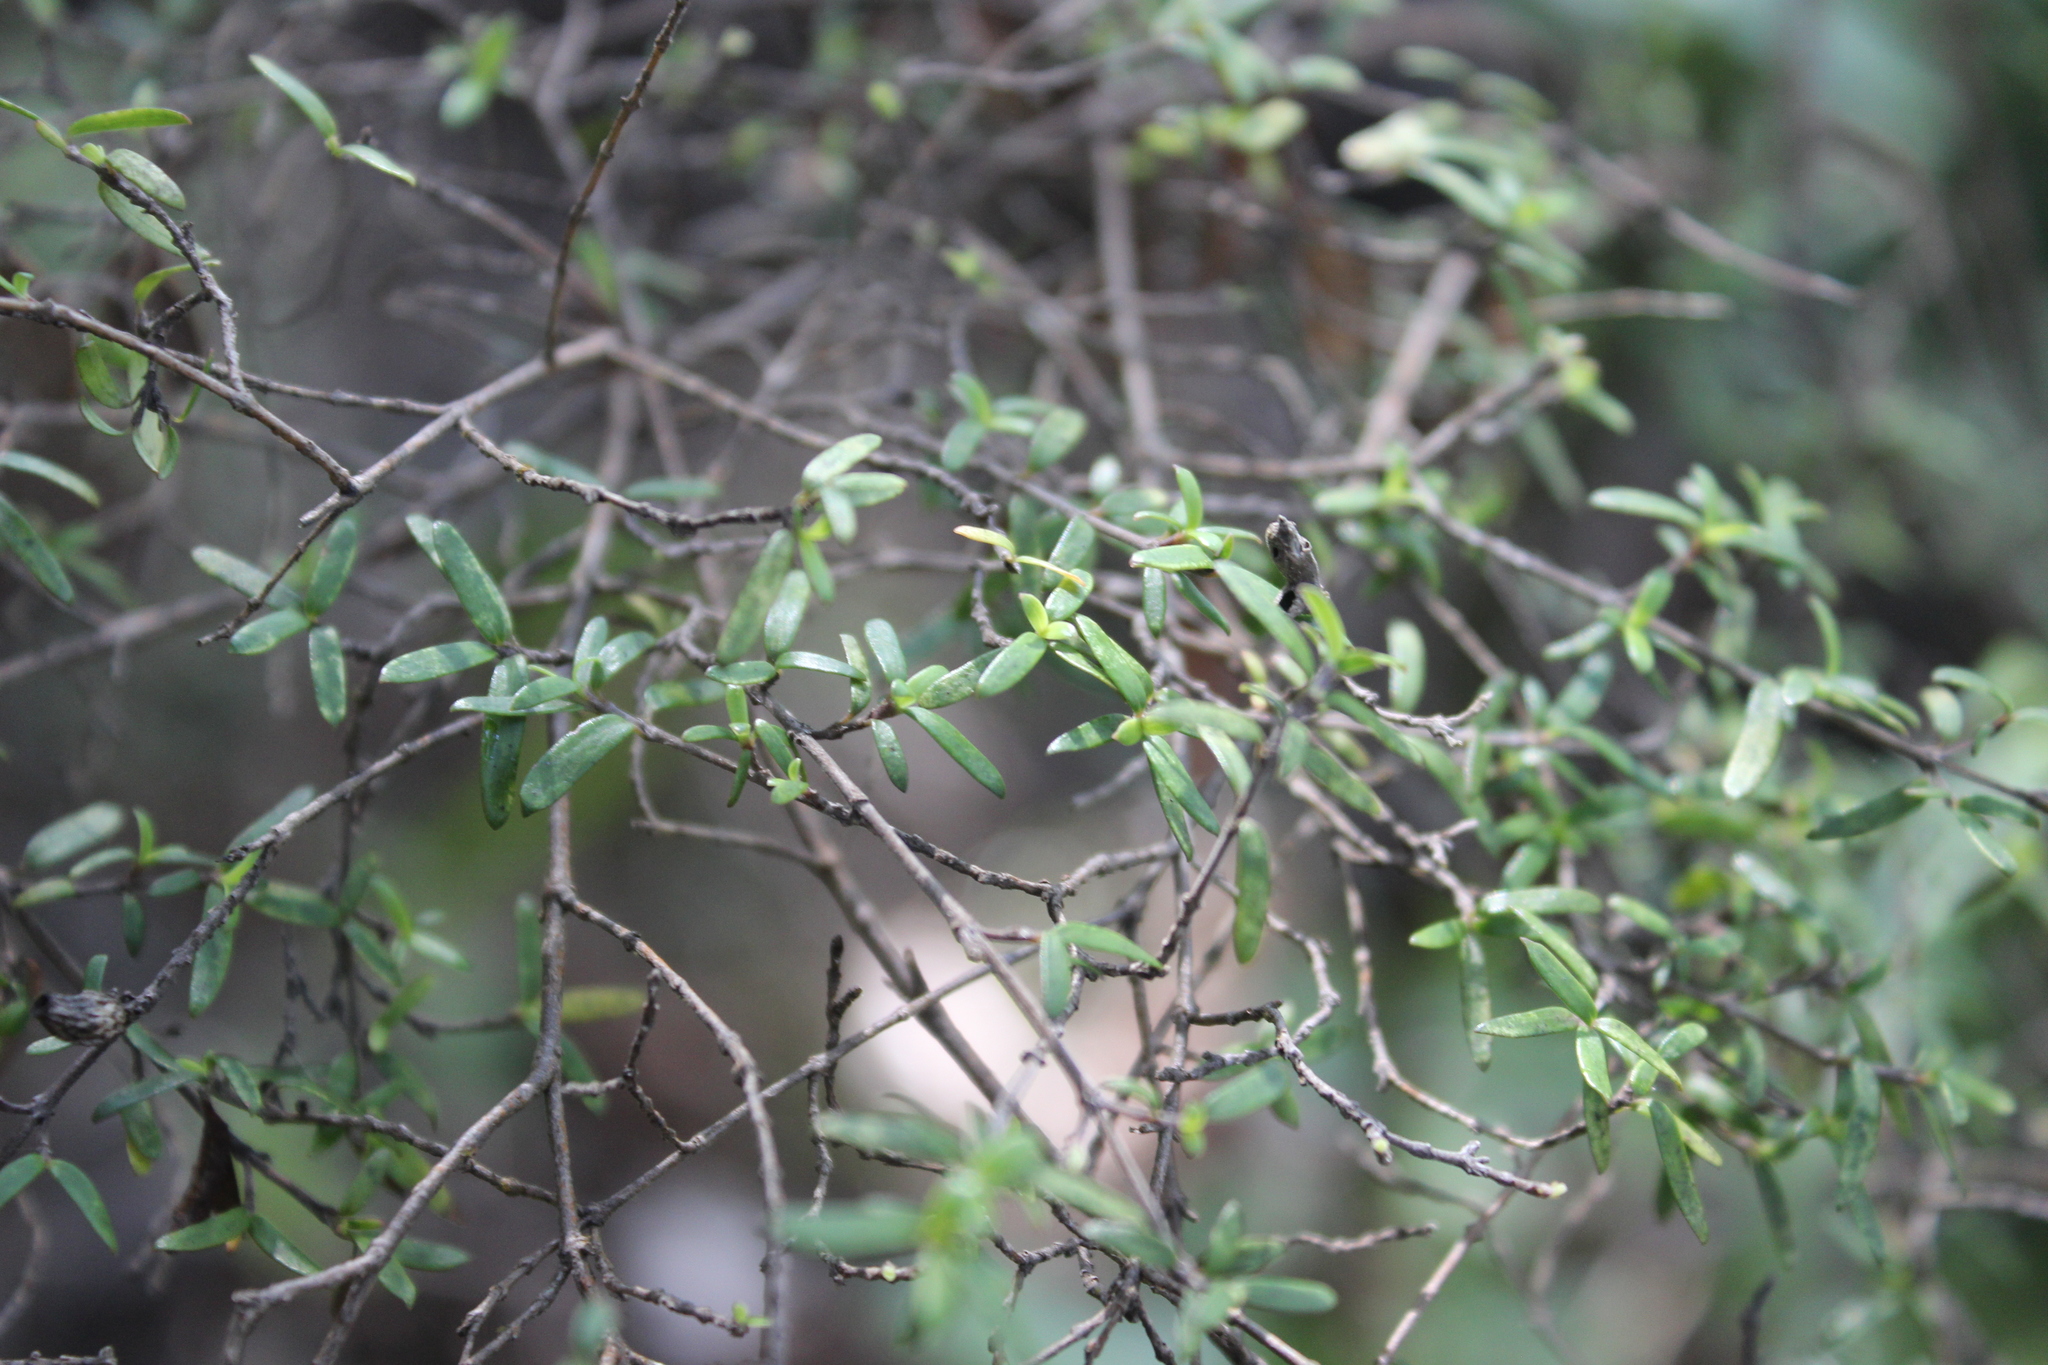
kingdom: Plantae
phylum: Tracheophyta
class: Magnoliopsida
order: Gentianales
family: Rubiaceae
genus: Coprosma
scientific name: Coprosma linariifolia
